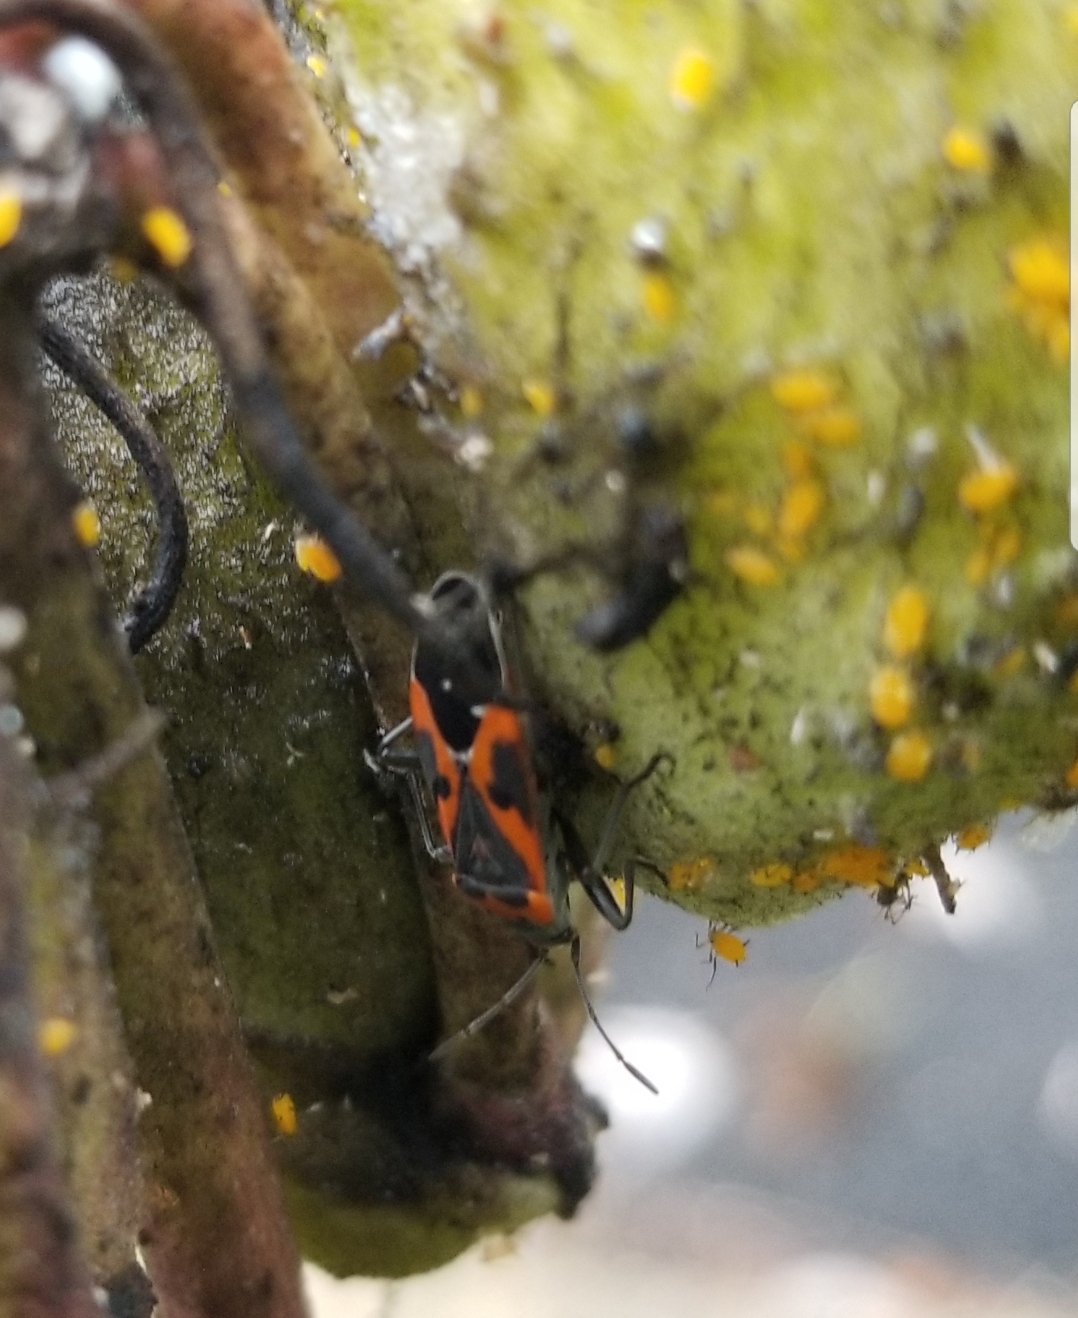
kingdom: Animalia
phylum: Arthropoda
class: Insecta
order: Hemiptera
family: Lygaeidae
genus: Lygaeus
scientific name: Lygaeus kalmii
